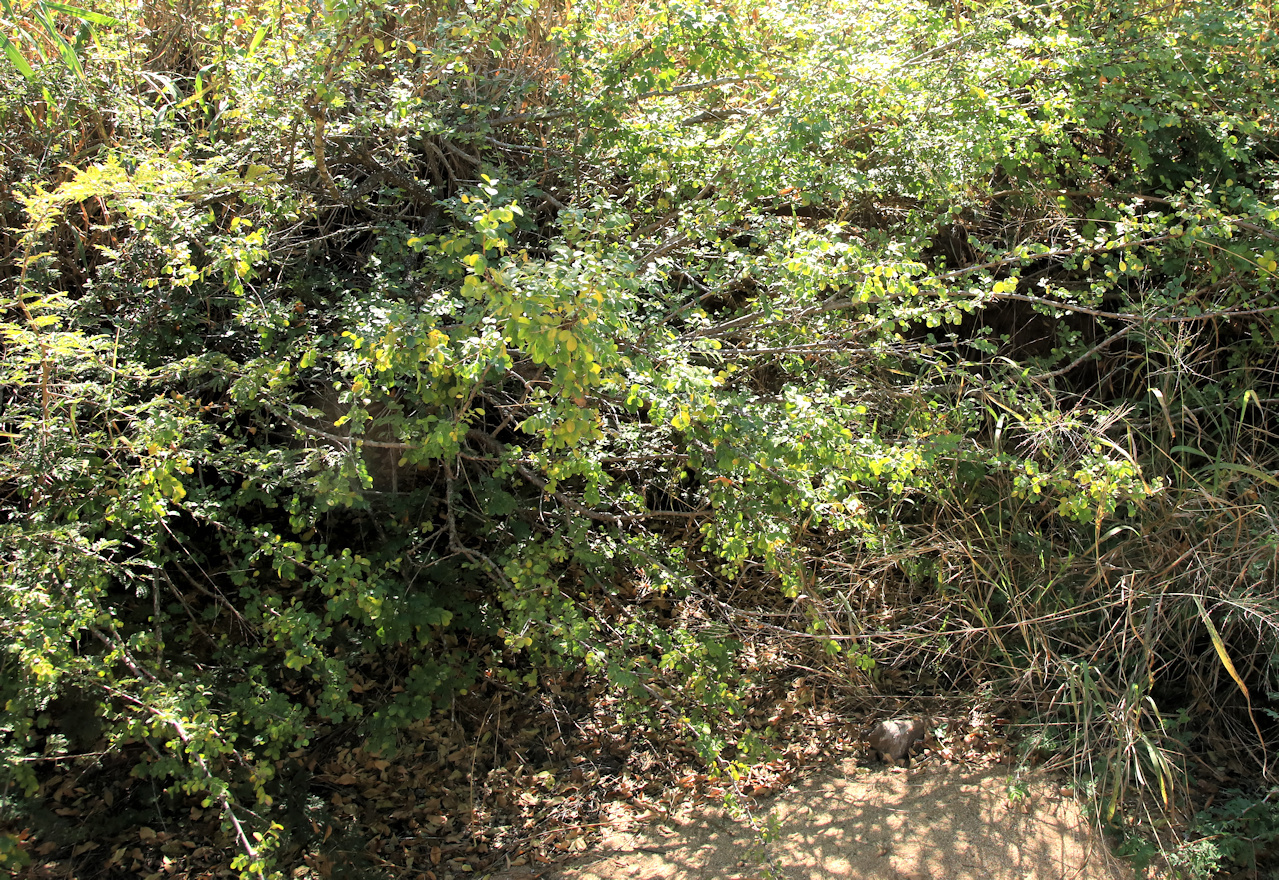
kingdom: Plantae
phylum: Tracheophyta
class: Magnoliopsida
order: Malpighiales
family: Phyllanthaceae
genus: Phyllanthus
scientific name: Phyllanthus reticulatus
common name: Potato bush
